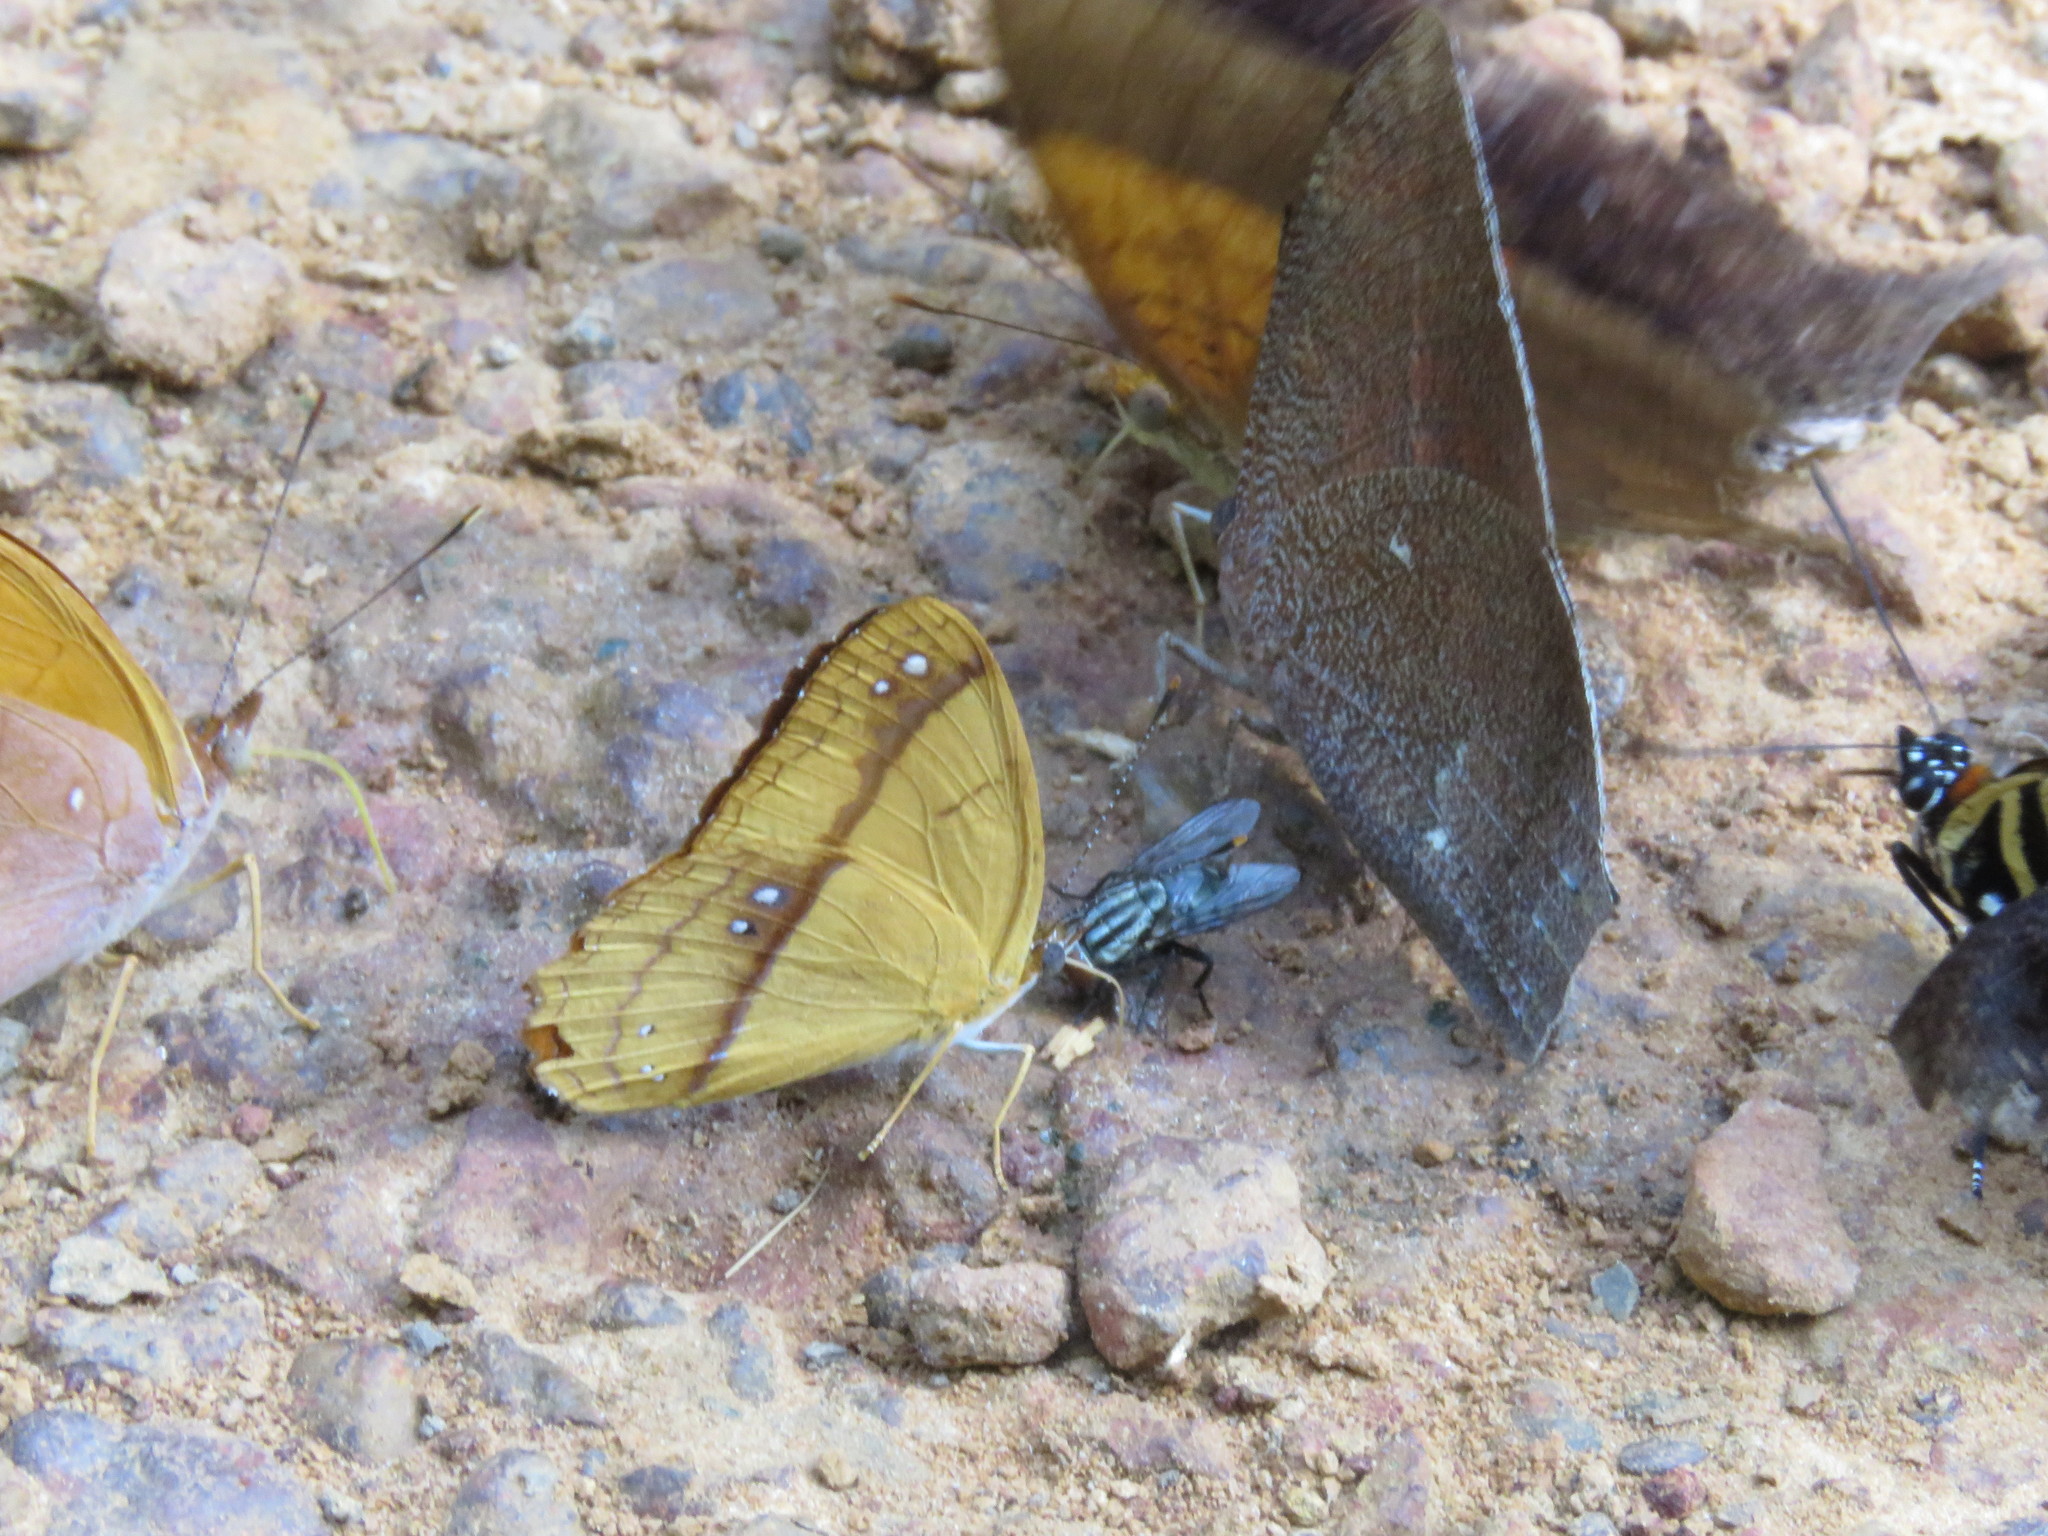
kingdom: Animalia
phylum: Arthropoda
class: Insecta
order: Lepidoptera
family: Nymphalidae
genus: Nica
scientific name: Nica flavilla
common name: Mandarin nica
